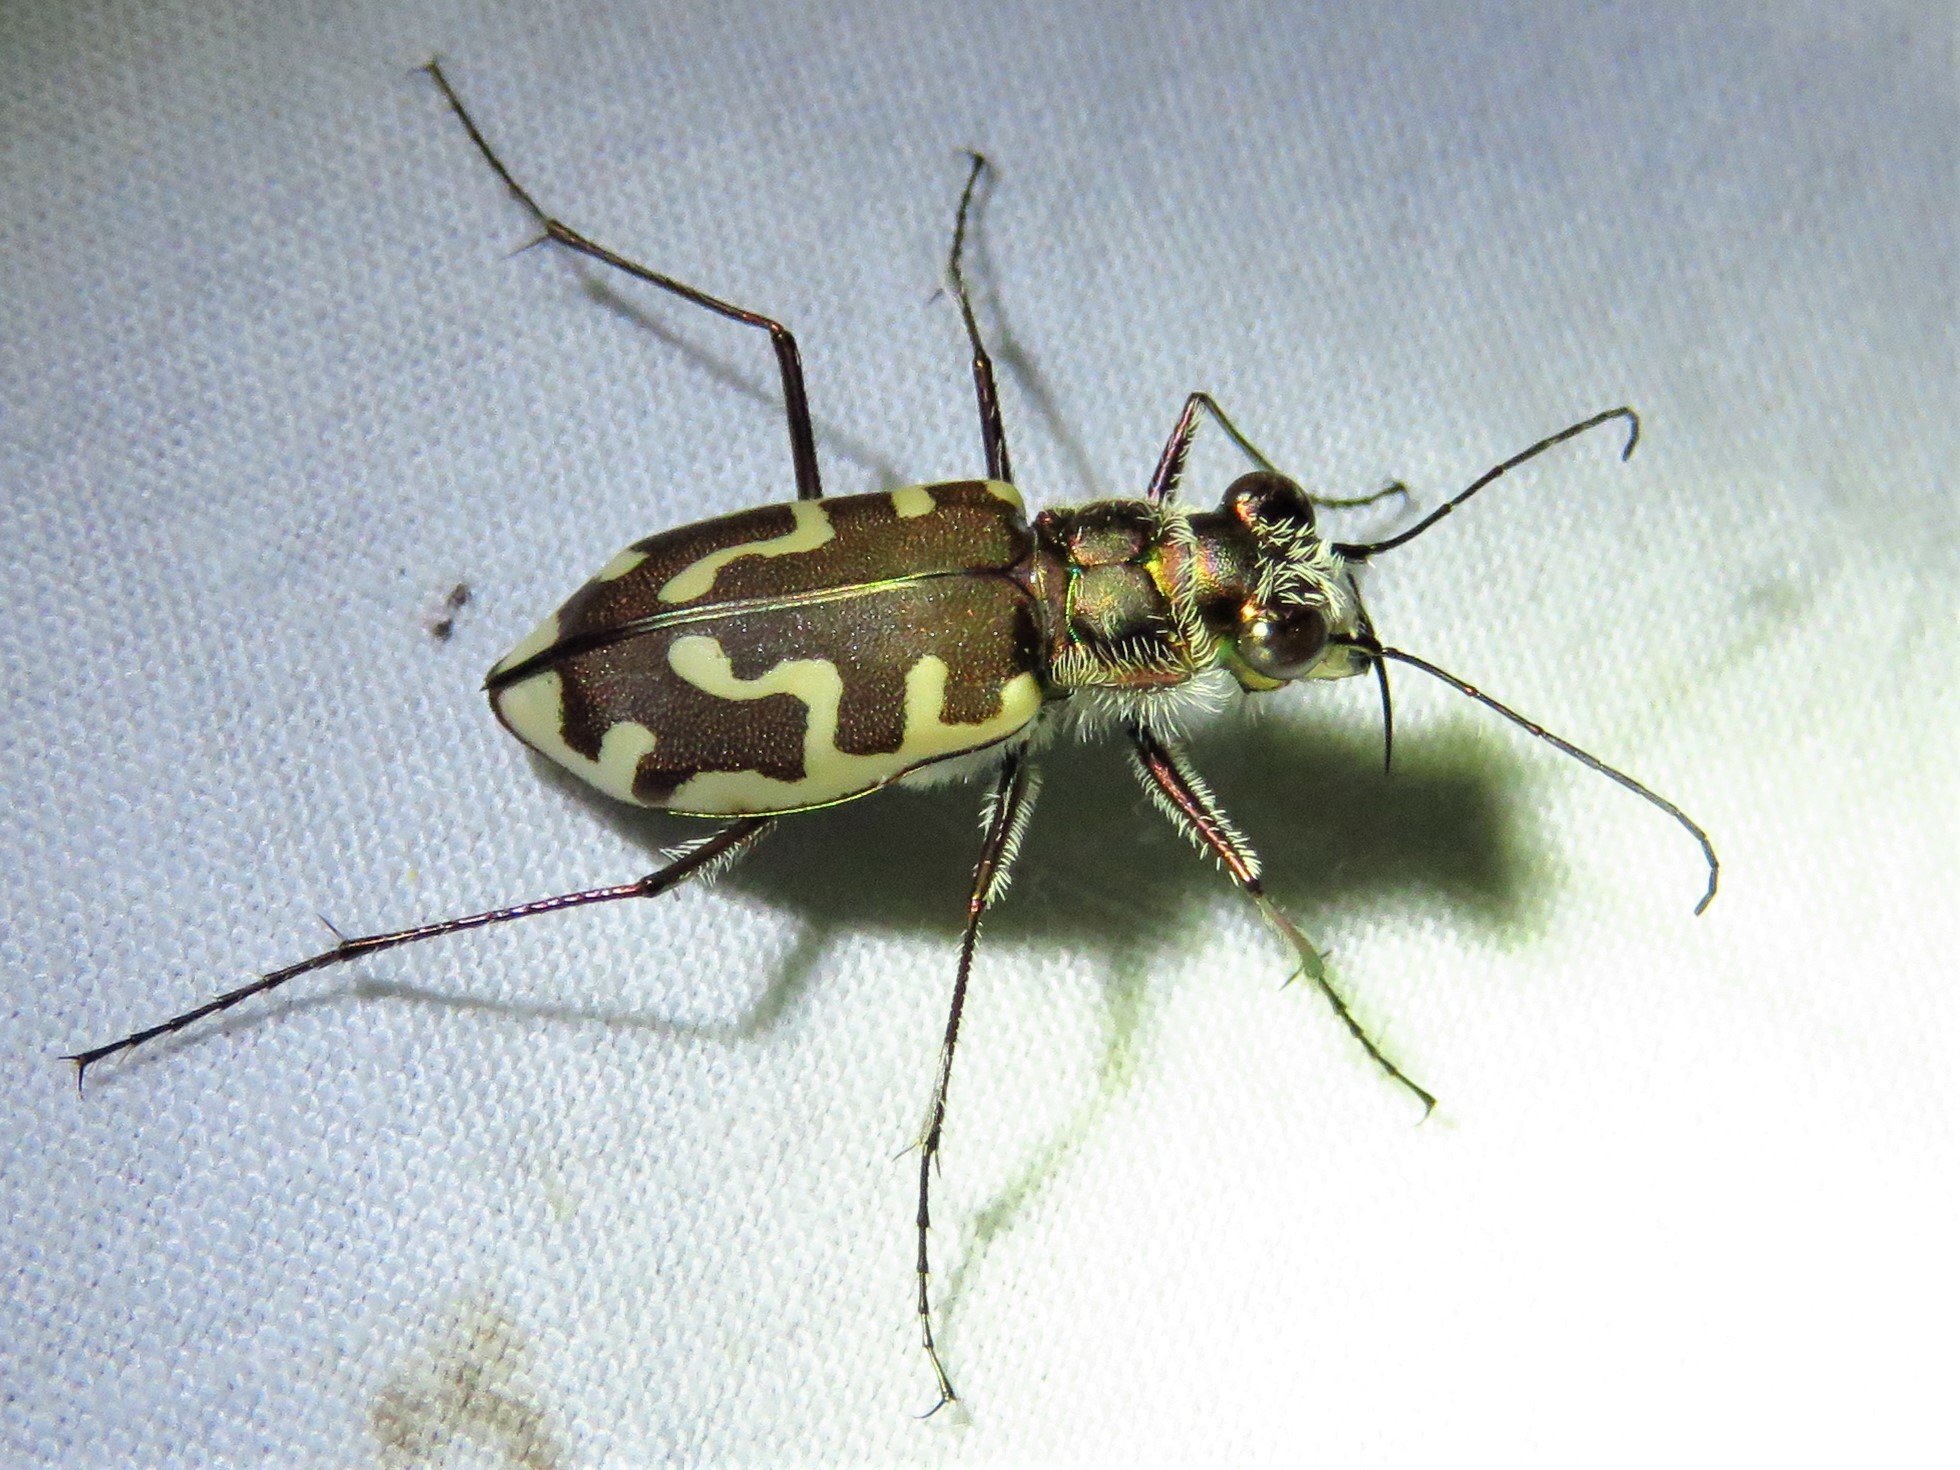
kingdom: Animalia
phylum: Arthropoda
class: Insecta
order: Coleoptera
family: Carabidae
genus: Cicindela
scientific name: Cicindela hirticollis
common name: Hairy-necked tiger beetle
